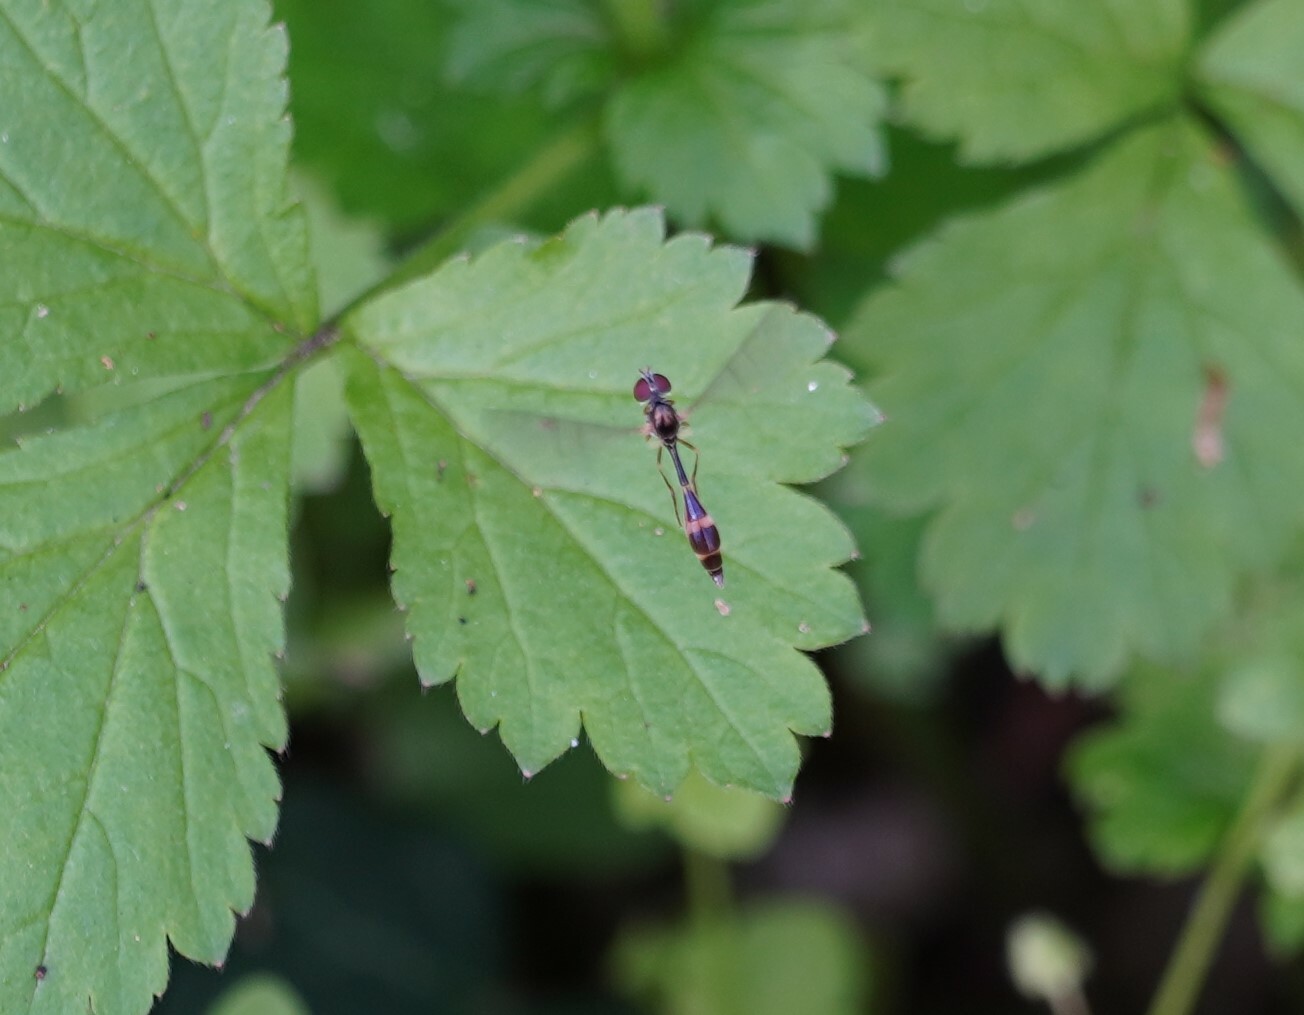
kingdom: Animalia
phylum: Arthropoda
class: Insecta
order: Diptera
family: Syrphidae
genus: Baccha
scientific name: Baccha elongata
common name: Common dainty
